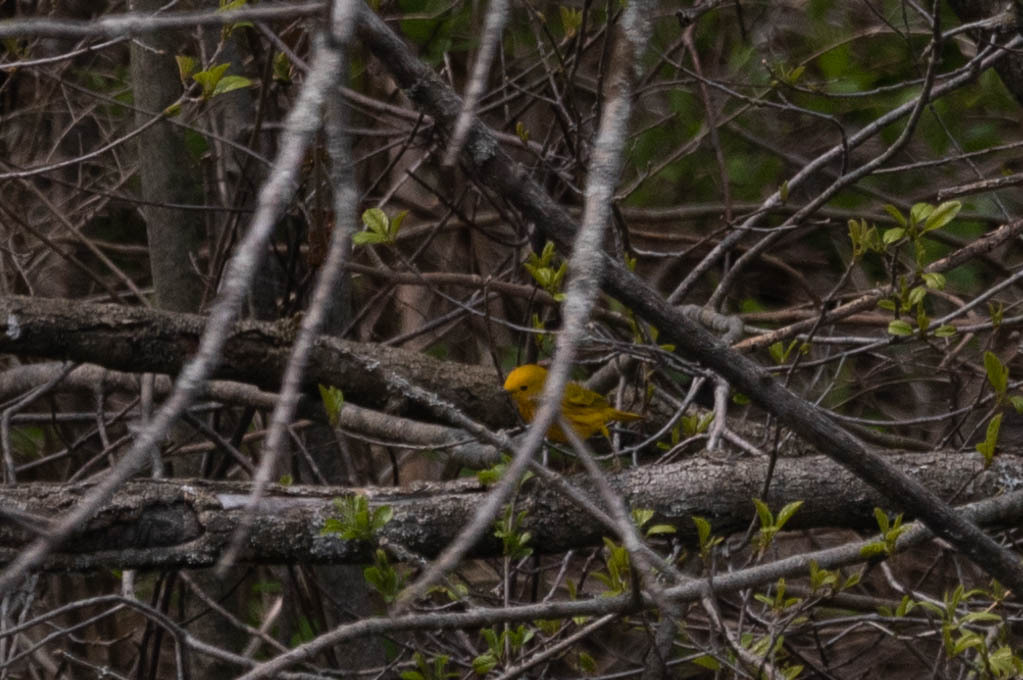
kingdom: Animalia
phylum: Chordata
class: Aves
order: Passeriformes
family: Parulidae
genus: Setophaga
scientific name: Setophaga petechia
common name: Yellow warbler
